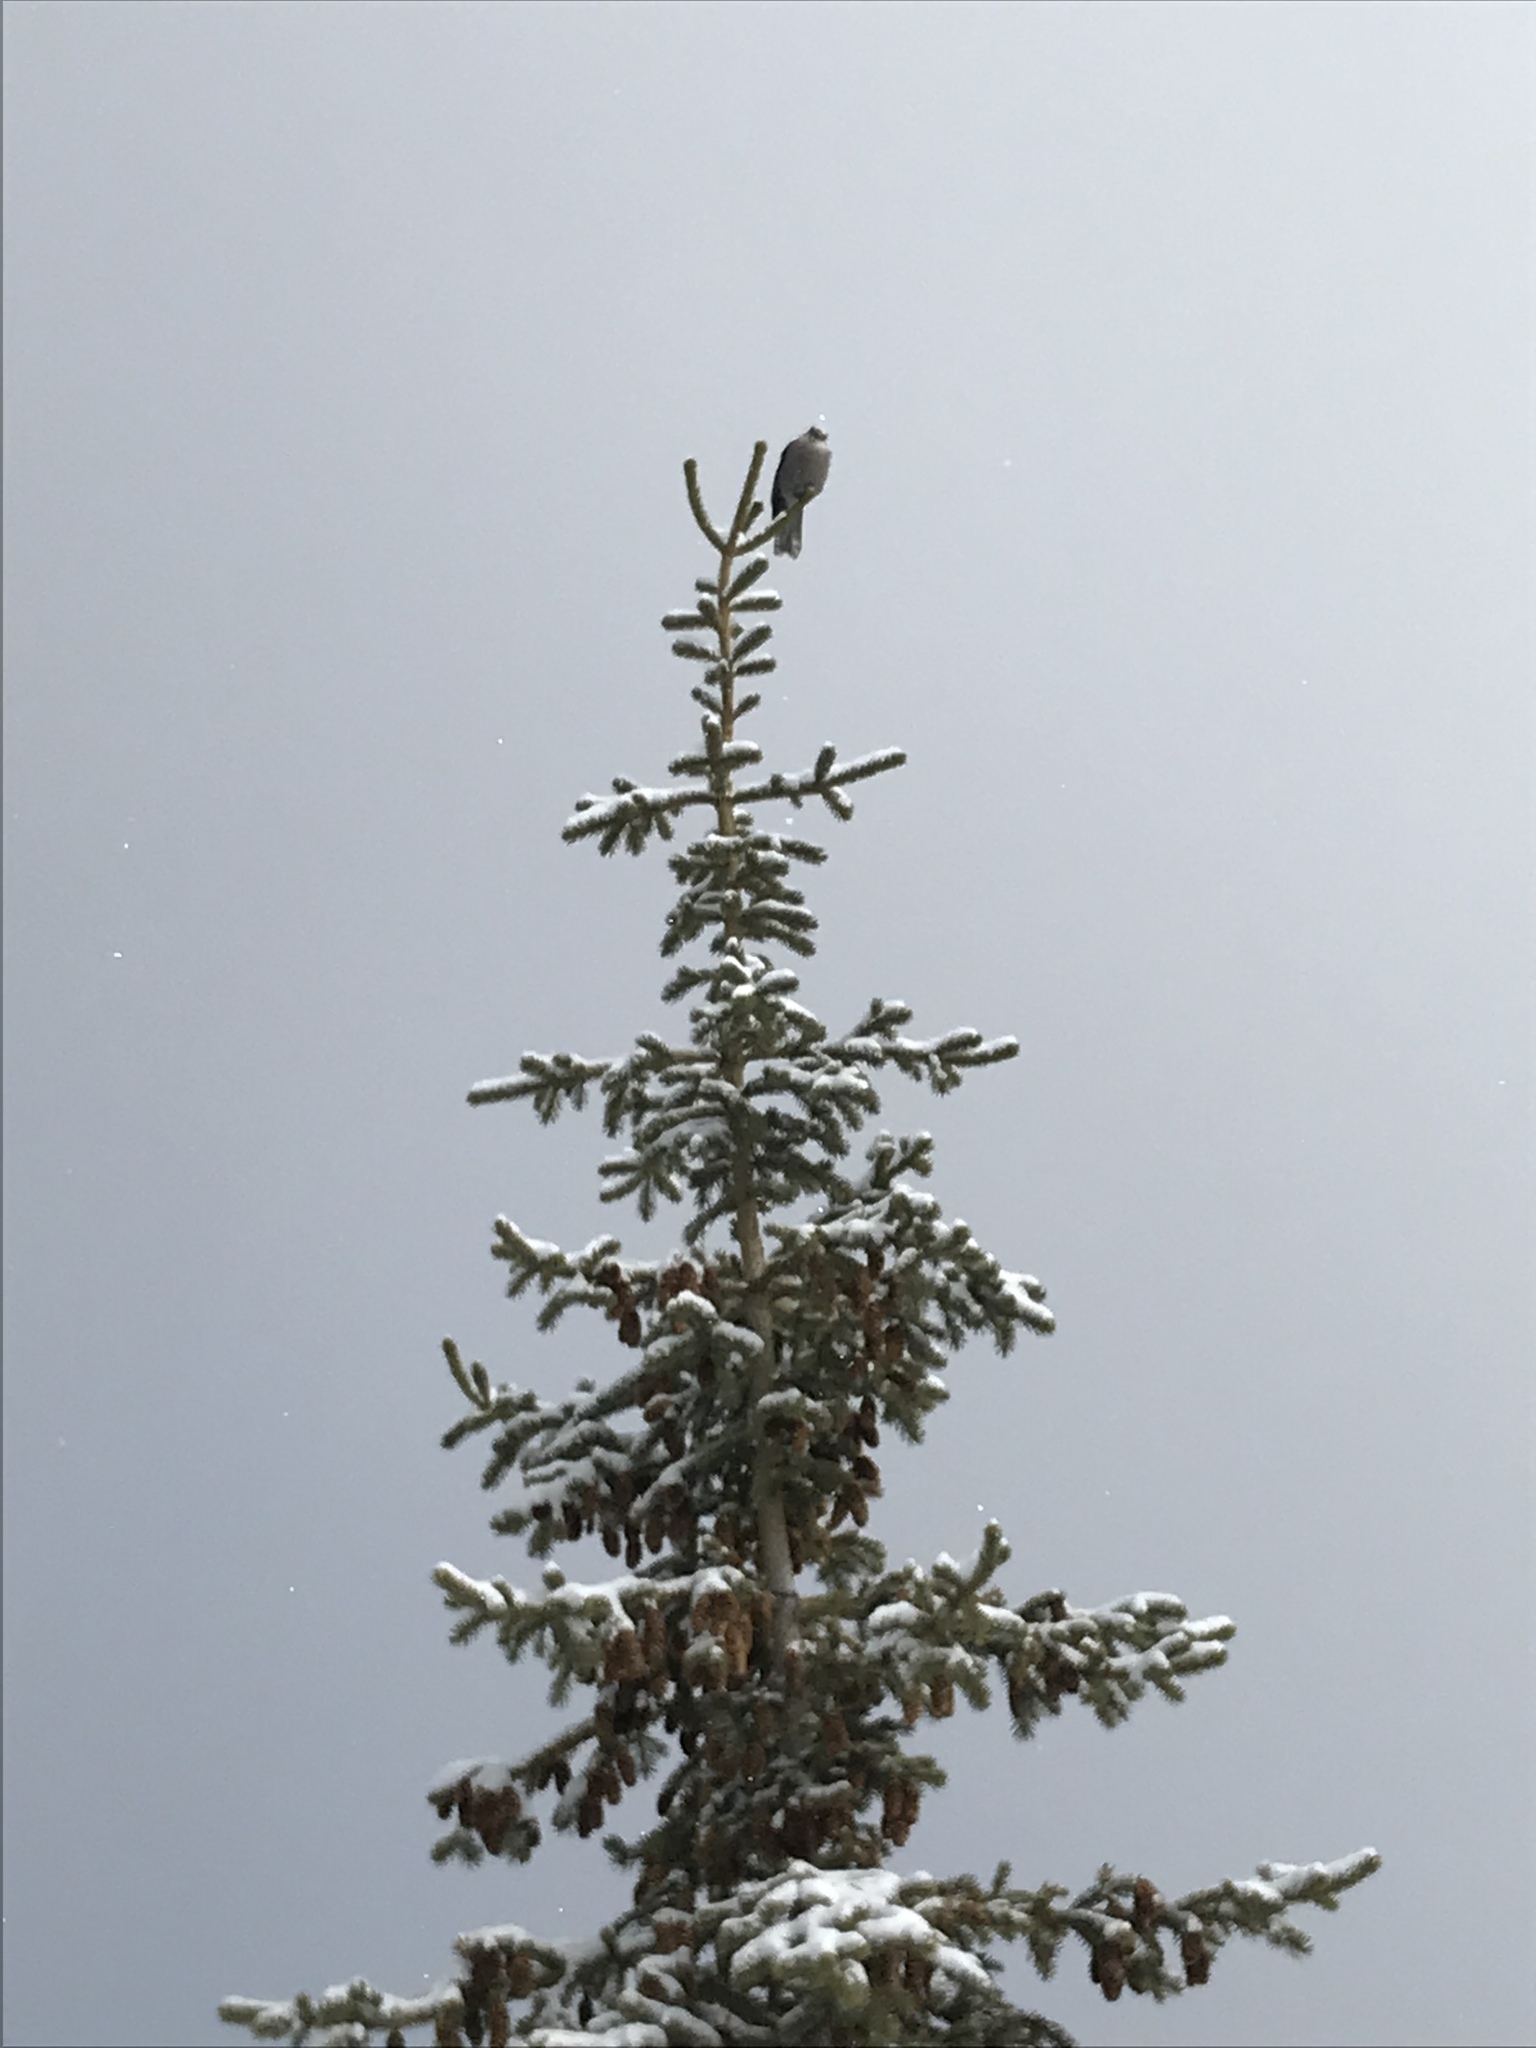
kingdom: Animalia
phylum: Chordata
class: Aves
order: Passeriformes
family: Corvidae
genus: Perisoreus
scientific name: Perisoreus canadensis
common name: Gray jay
